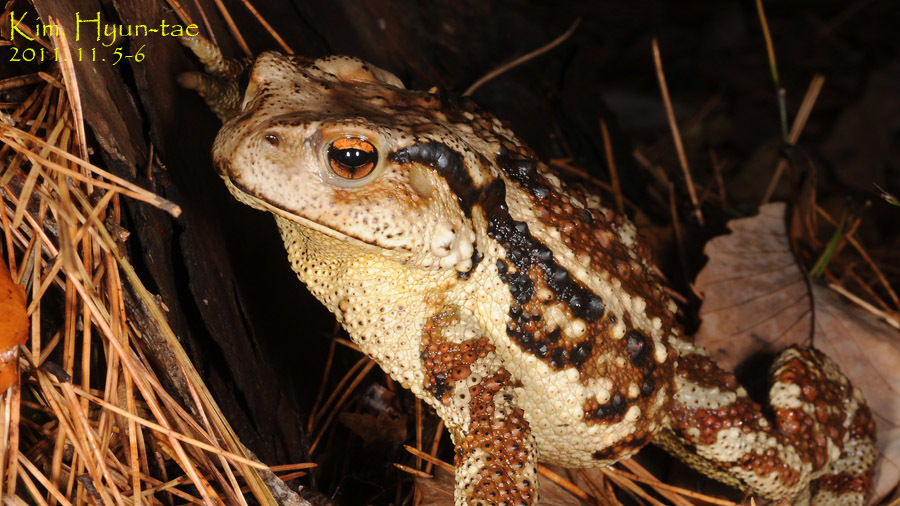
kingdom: Animalia
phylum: Chordata
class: Amphibia
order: Anura
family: Bufonidae
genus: Bufo
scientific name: Bufo gargarizans
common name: Asiatic toad
